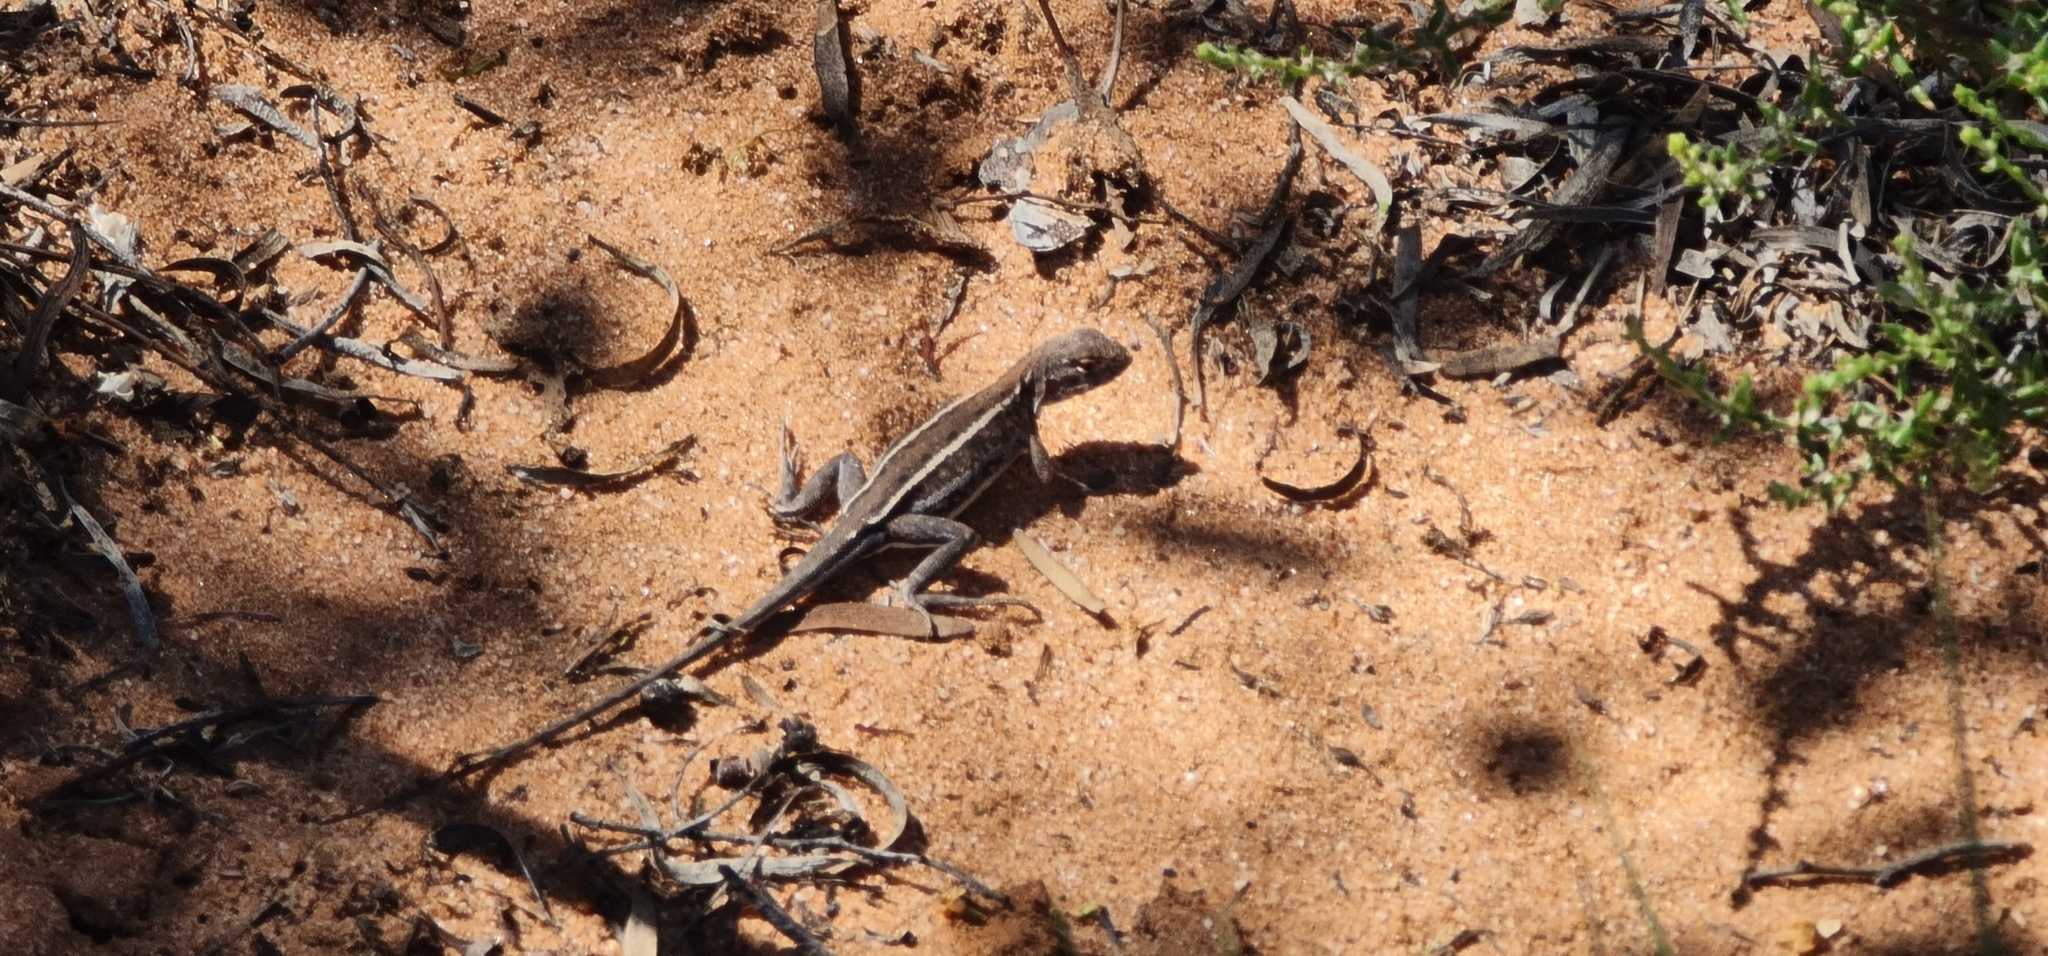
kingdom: Animalia
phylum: Chordata
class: Squamata
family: Agamidae
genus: Ctenophorus
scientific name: Ctenophorus spinodomus
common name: Eastern mallee dragon
